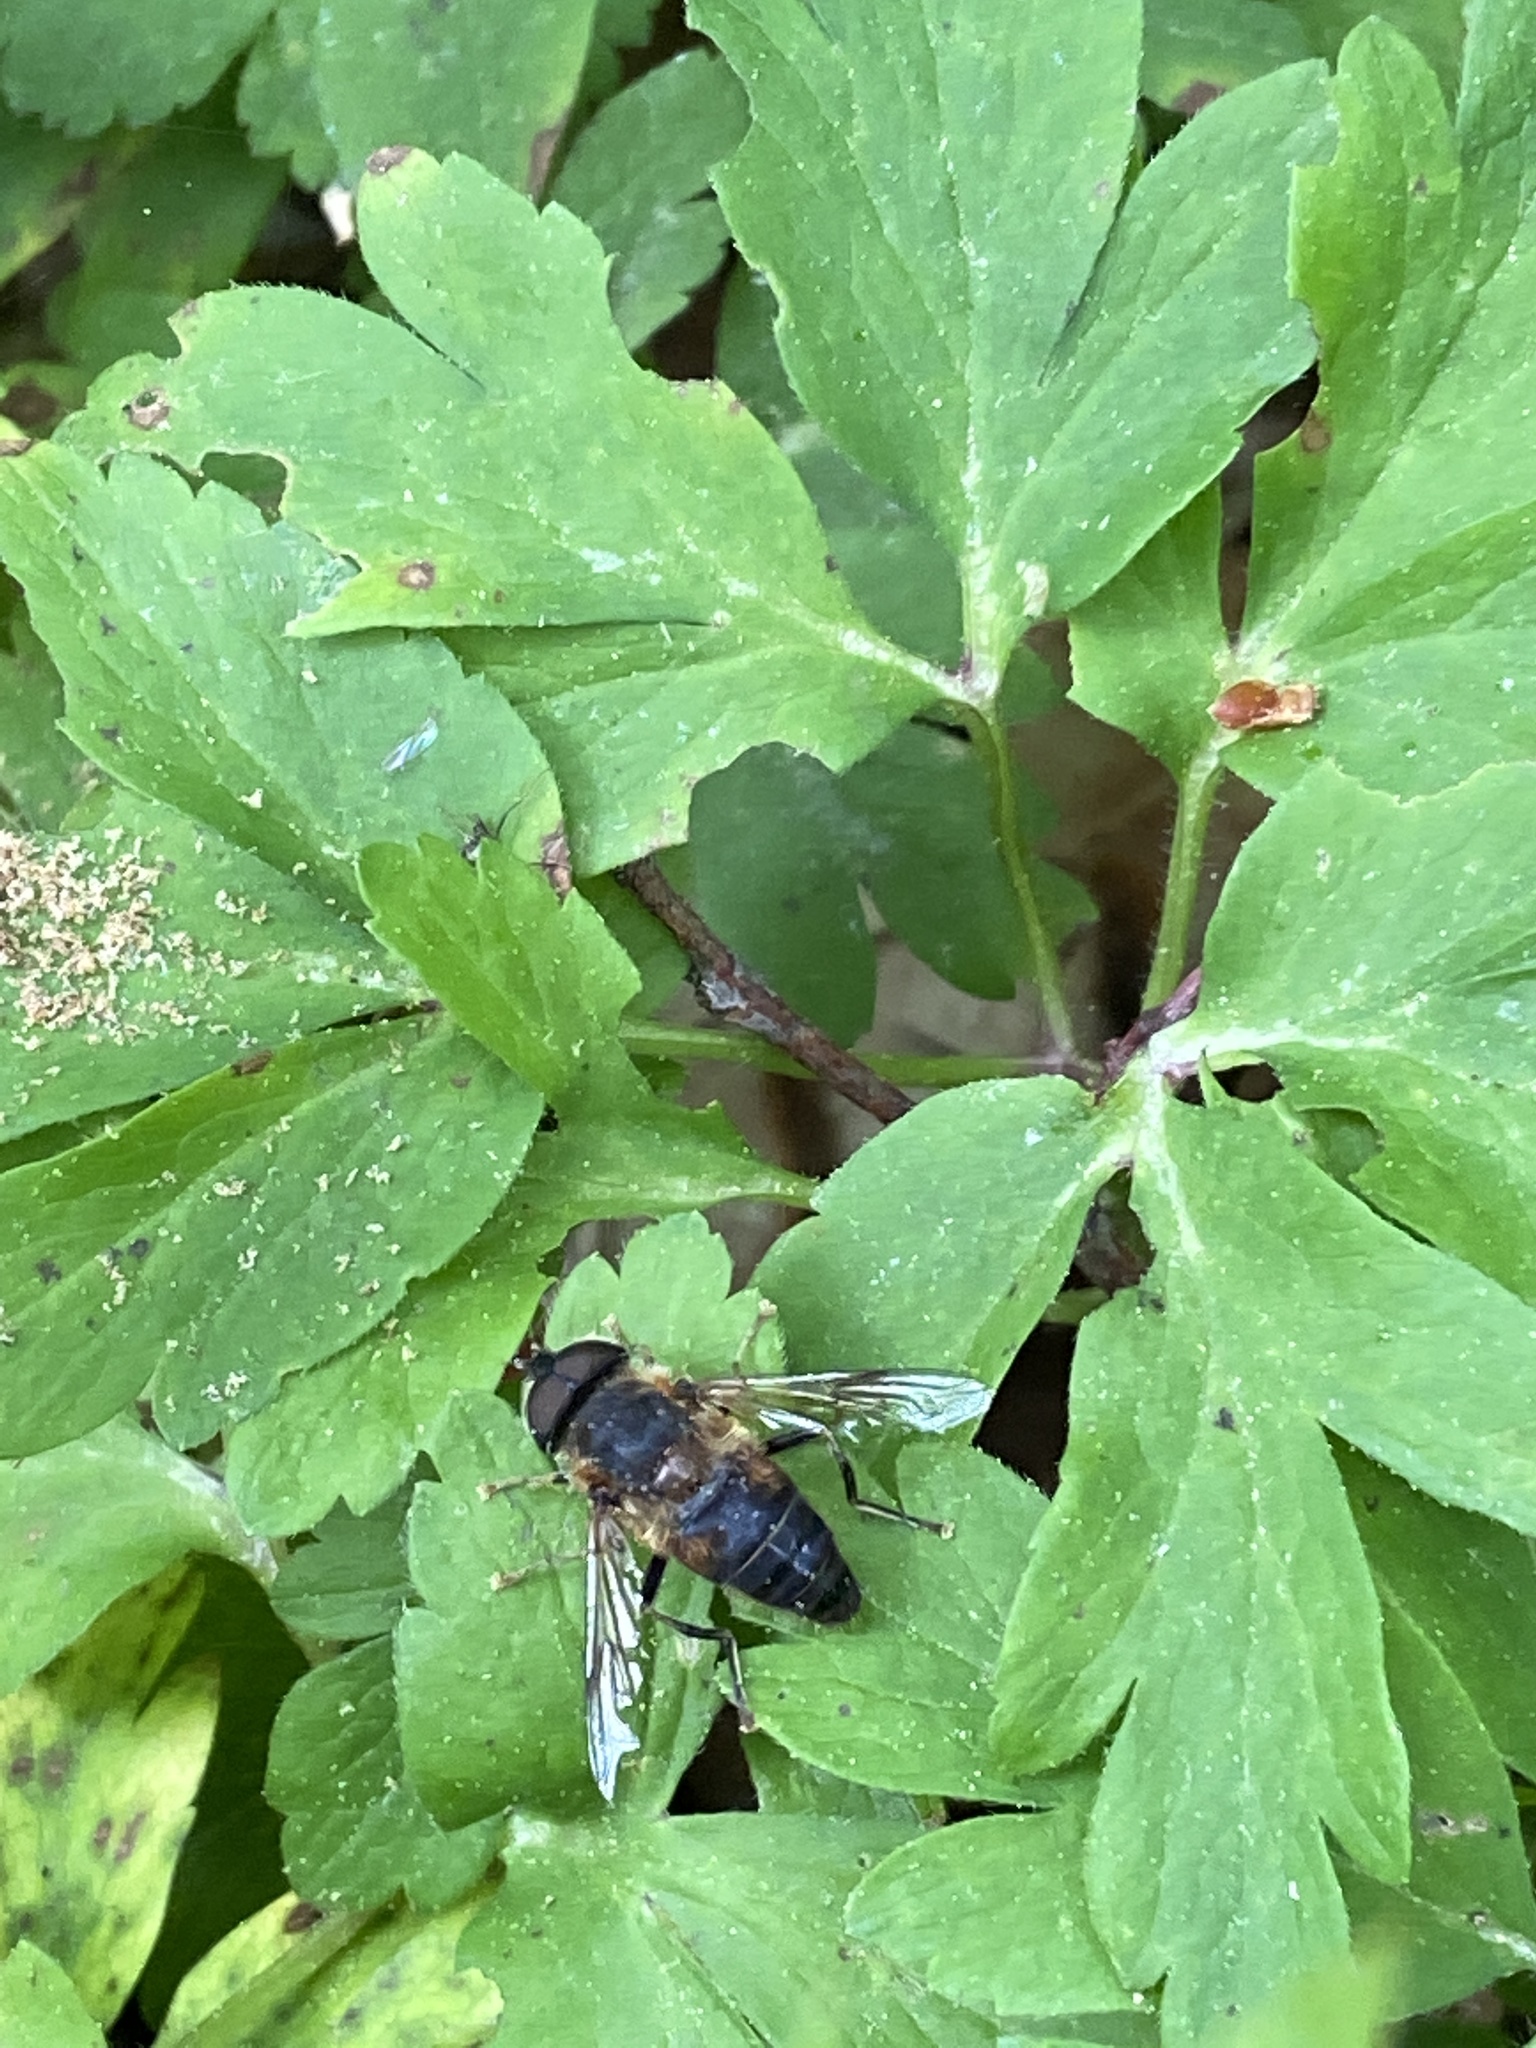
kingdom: Animalia
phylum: Arthropoda
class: Insecta
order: Diptera
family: Syrphidae
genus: Eristalis
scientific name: Eristalis pertinax
